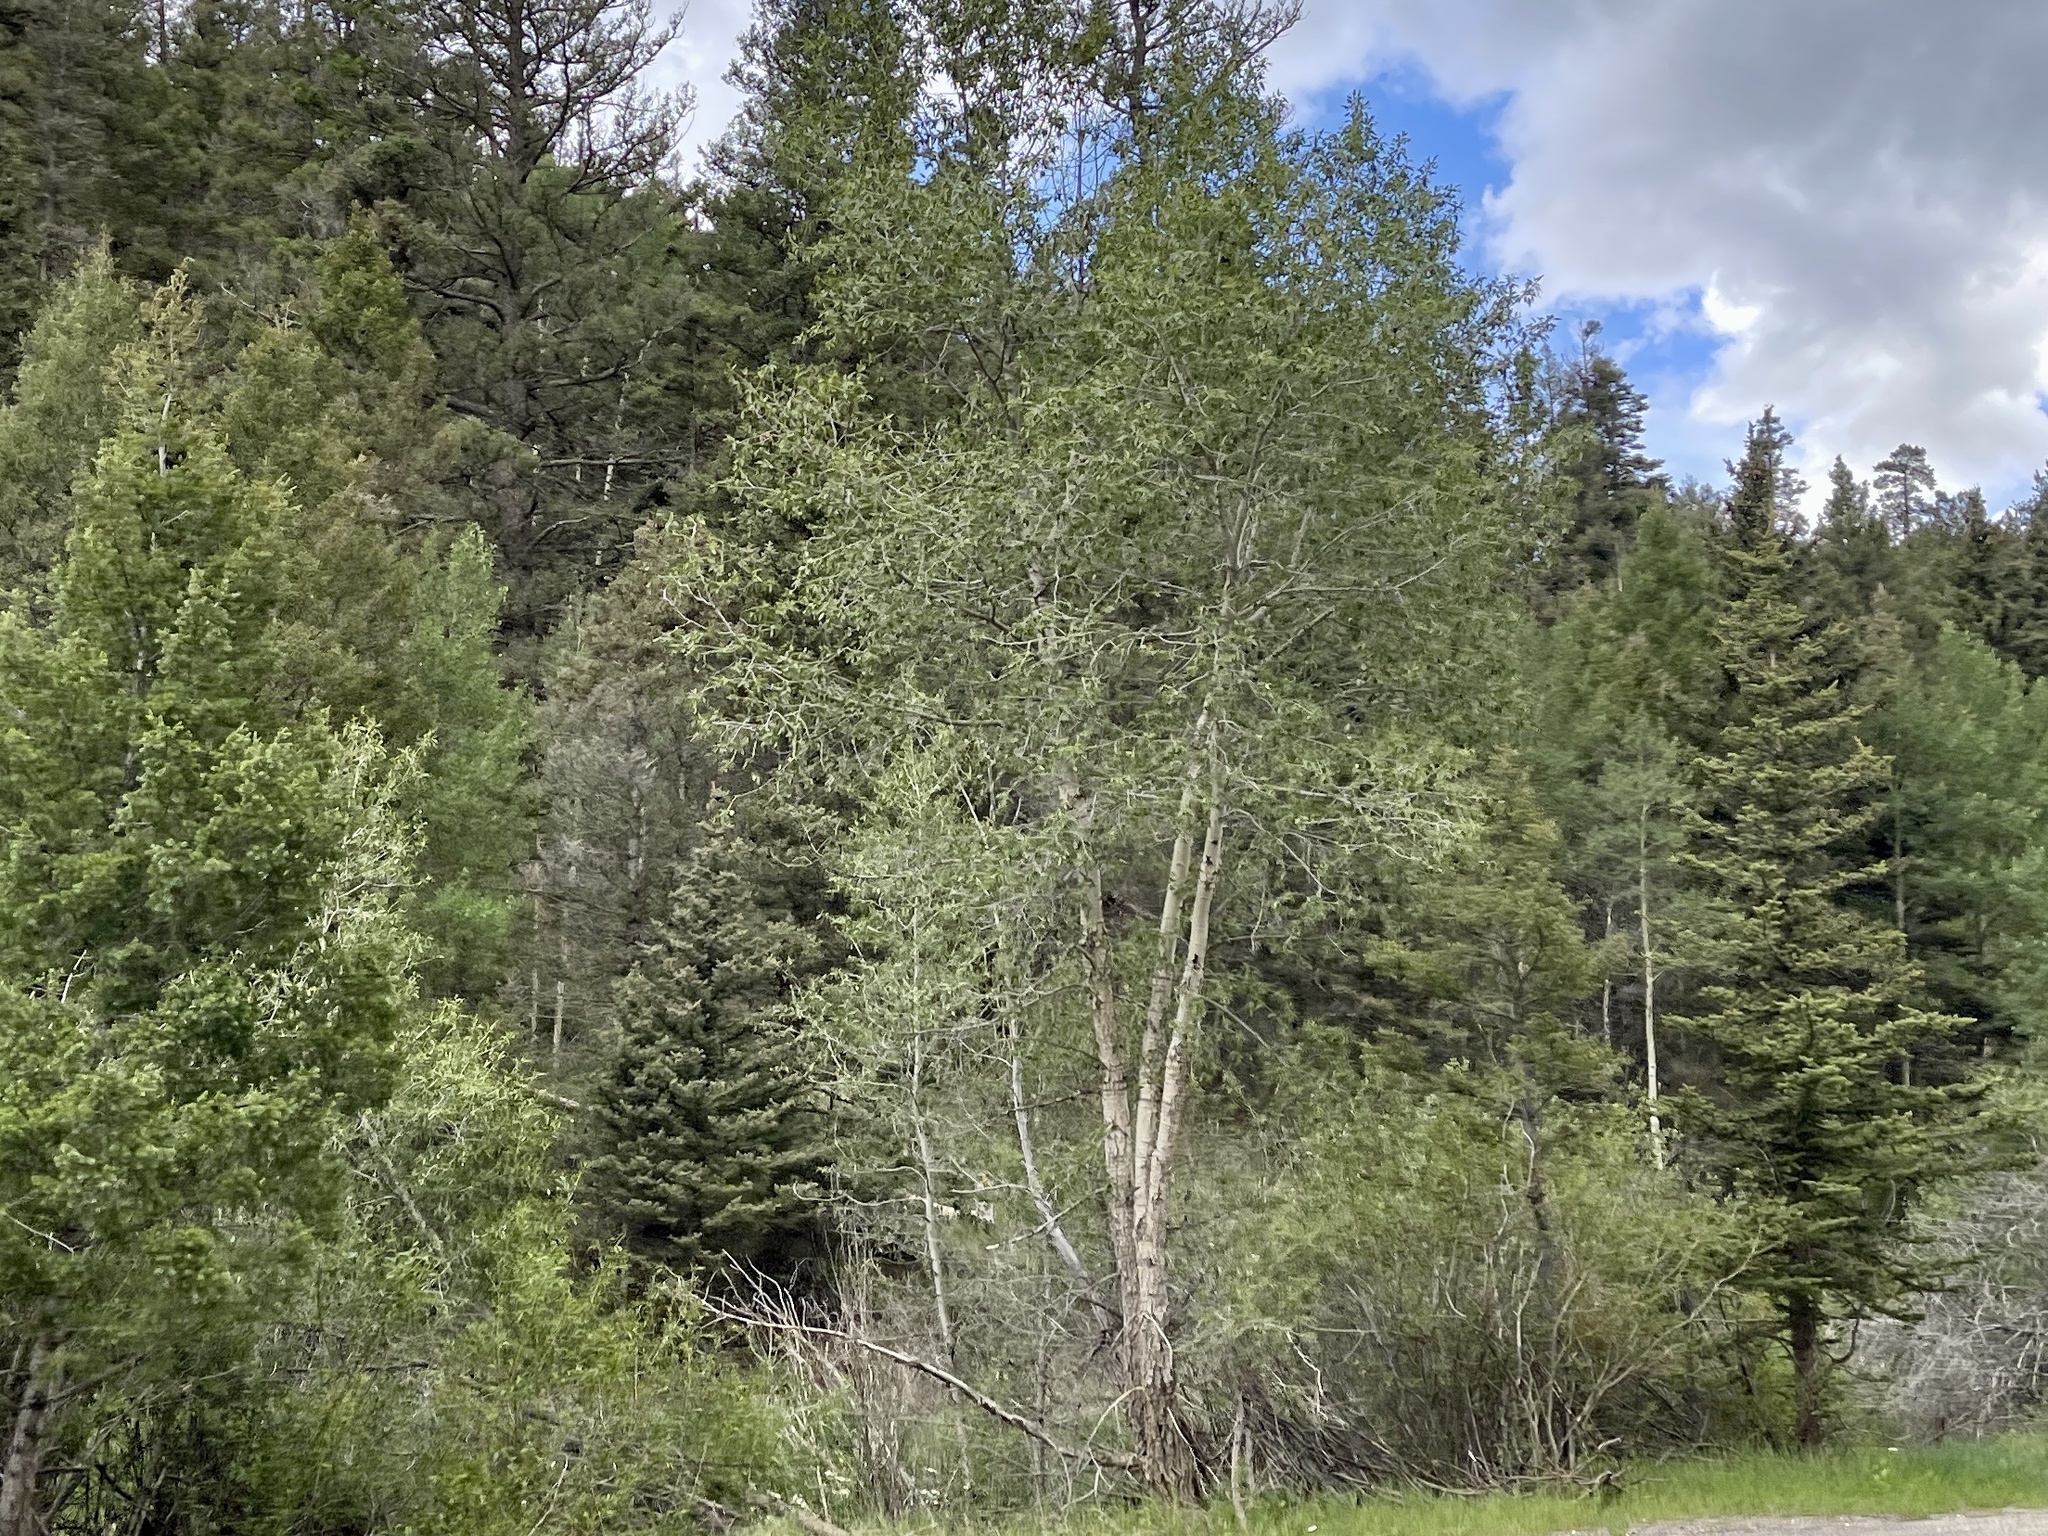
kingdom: Plantae
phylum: Tracheophyta
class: Magnoliopsida
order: Malpighiales
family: Salicaceae
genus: Populus
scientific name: Populus tremuloides
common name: Quaking aspen
